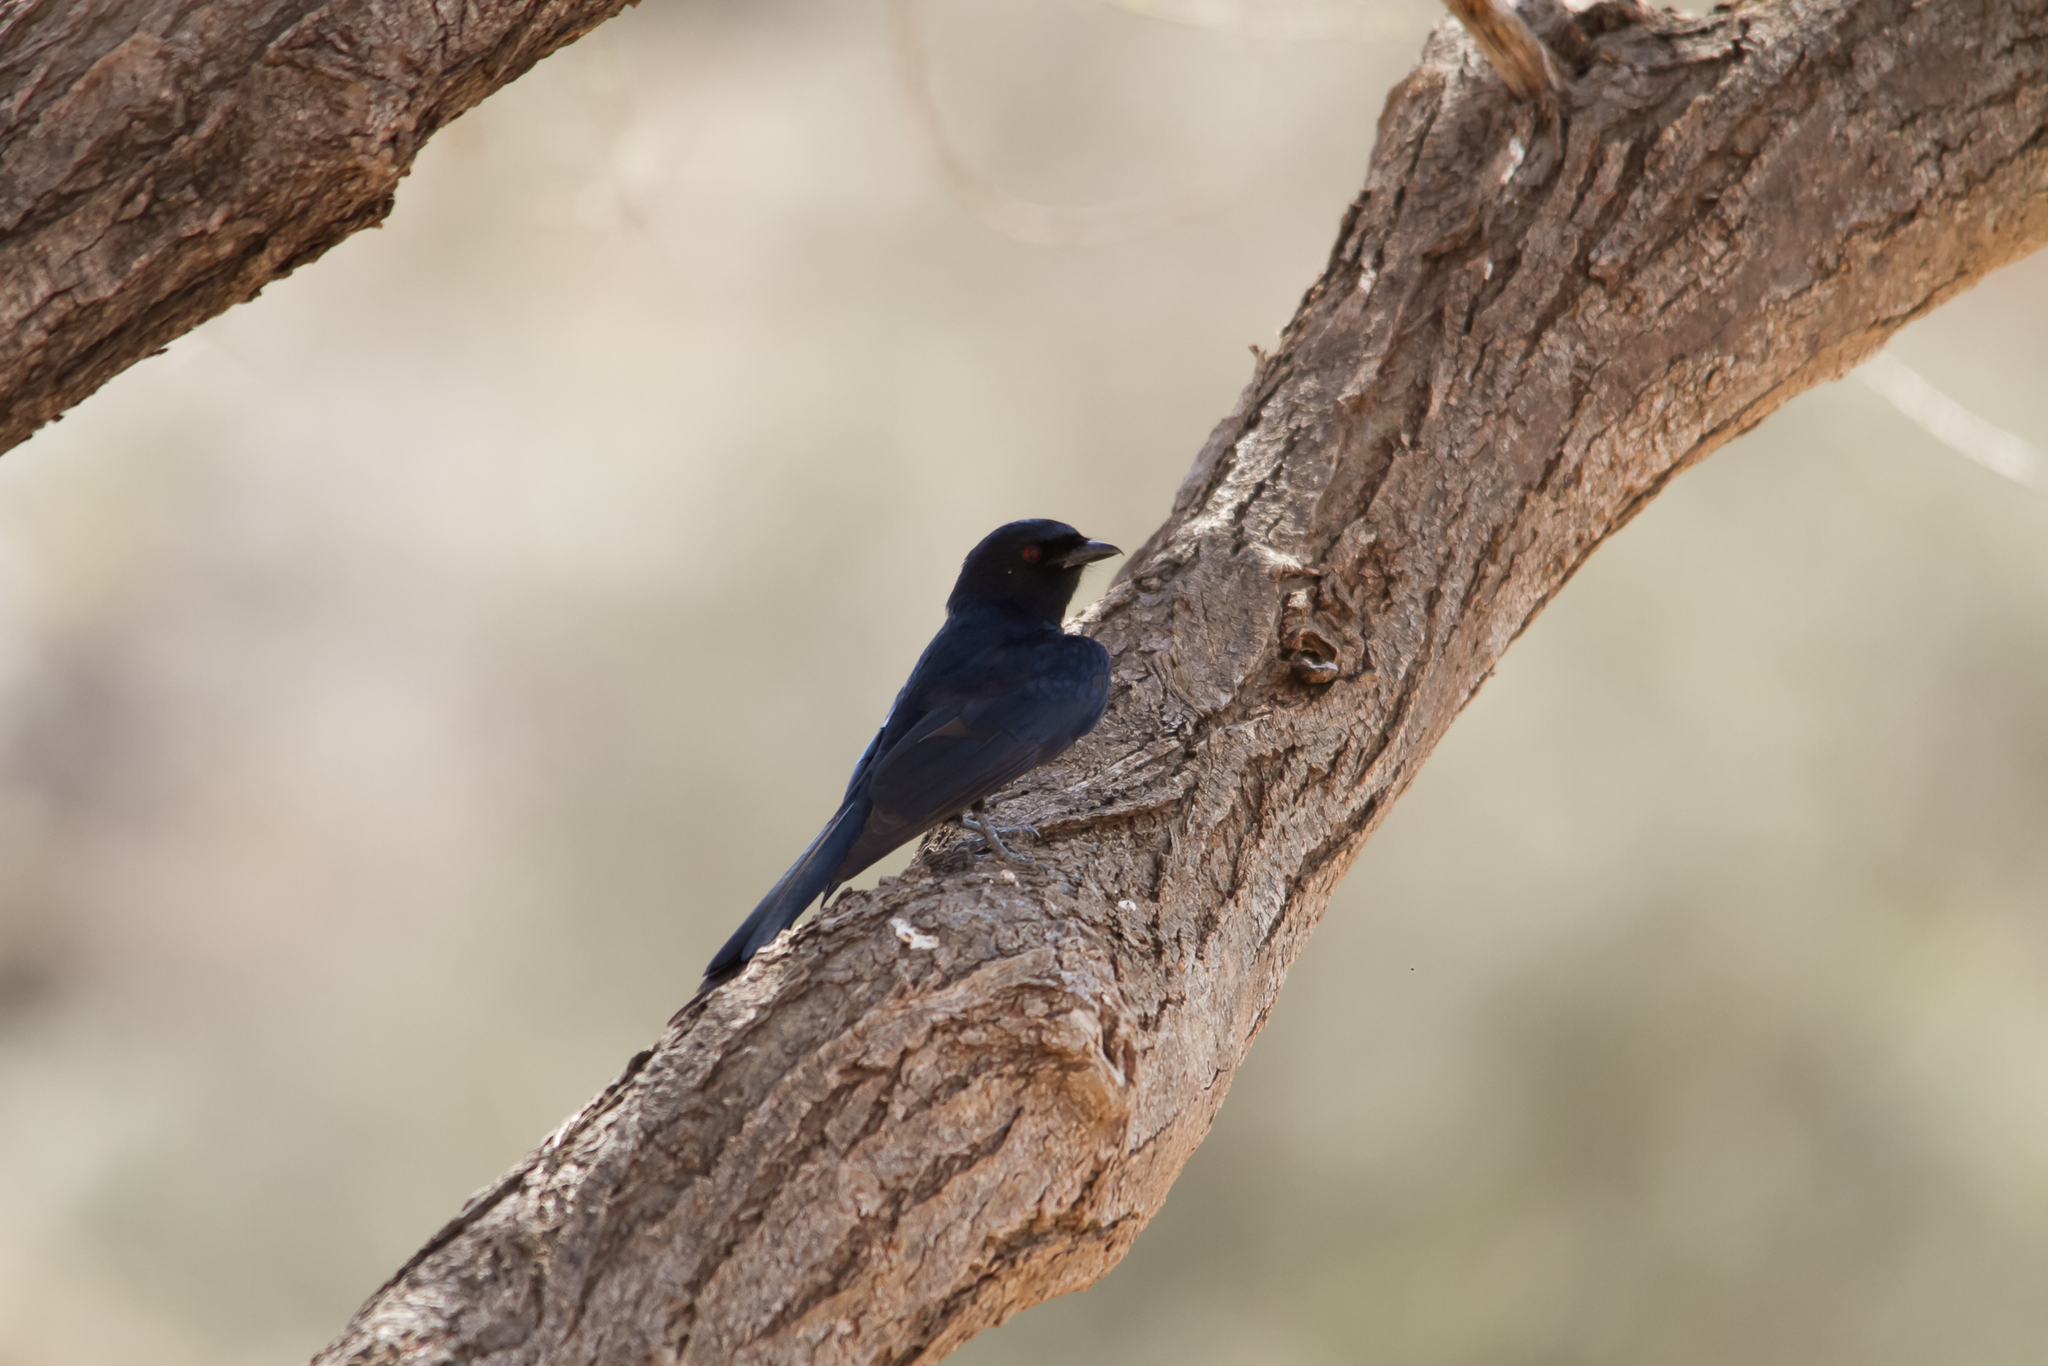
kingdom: Animalia
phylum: Chordata
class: Aves
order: Passeriformes
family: Dicruridae
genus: Dicrurus
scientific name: Dicrurus adsimilis
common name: Fork-tailed drongo
